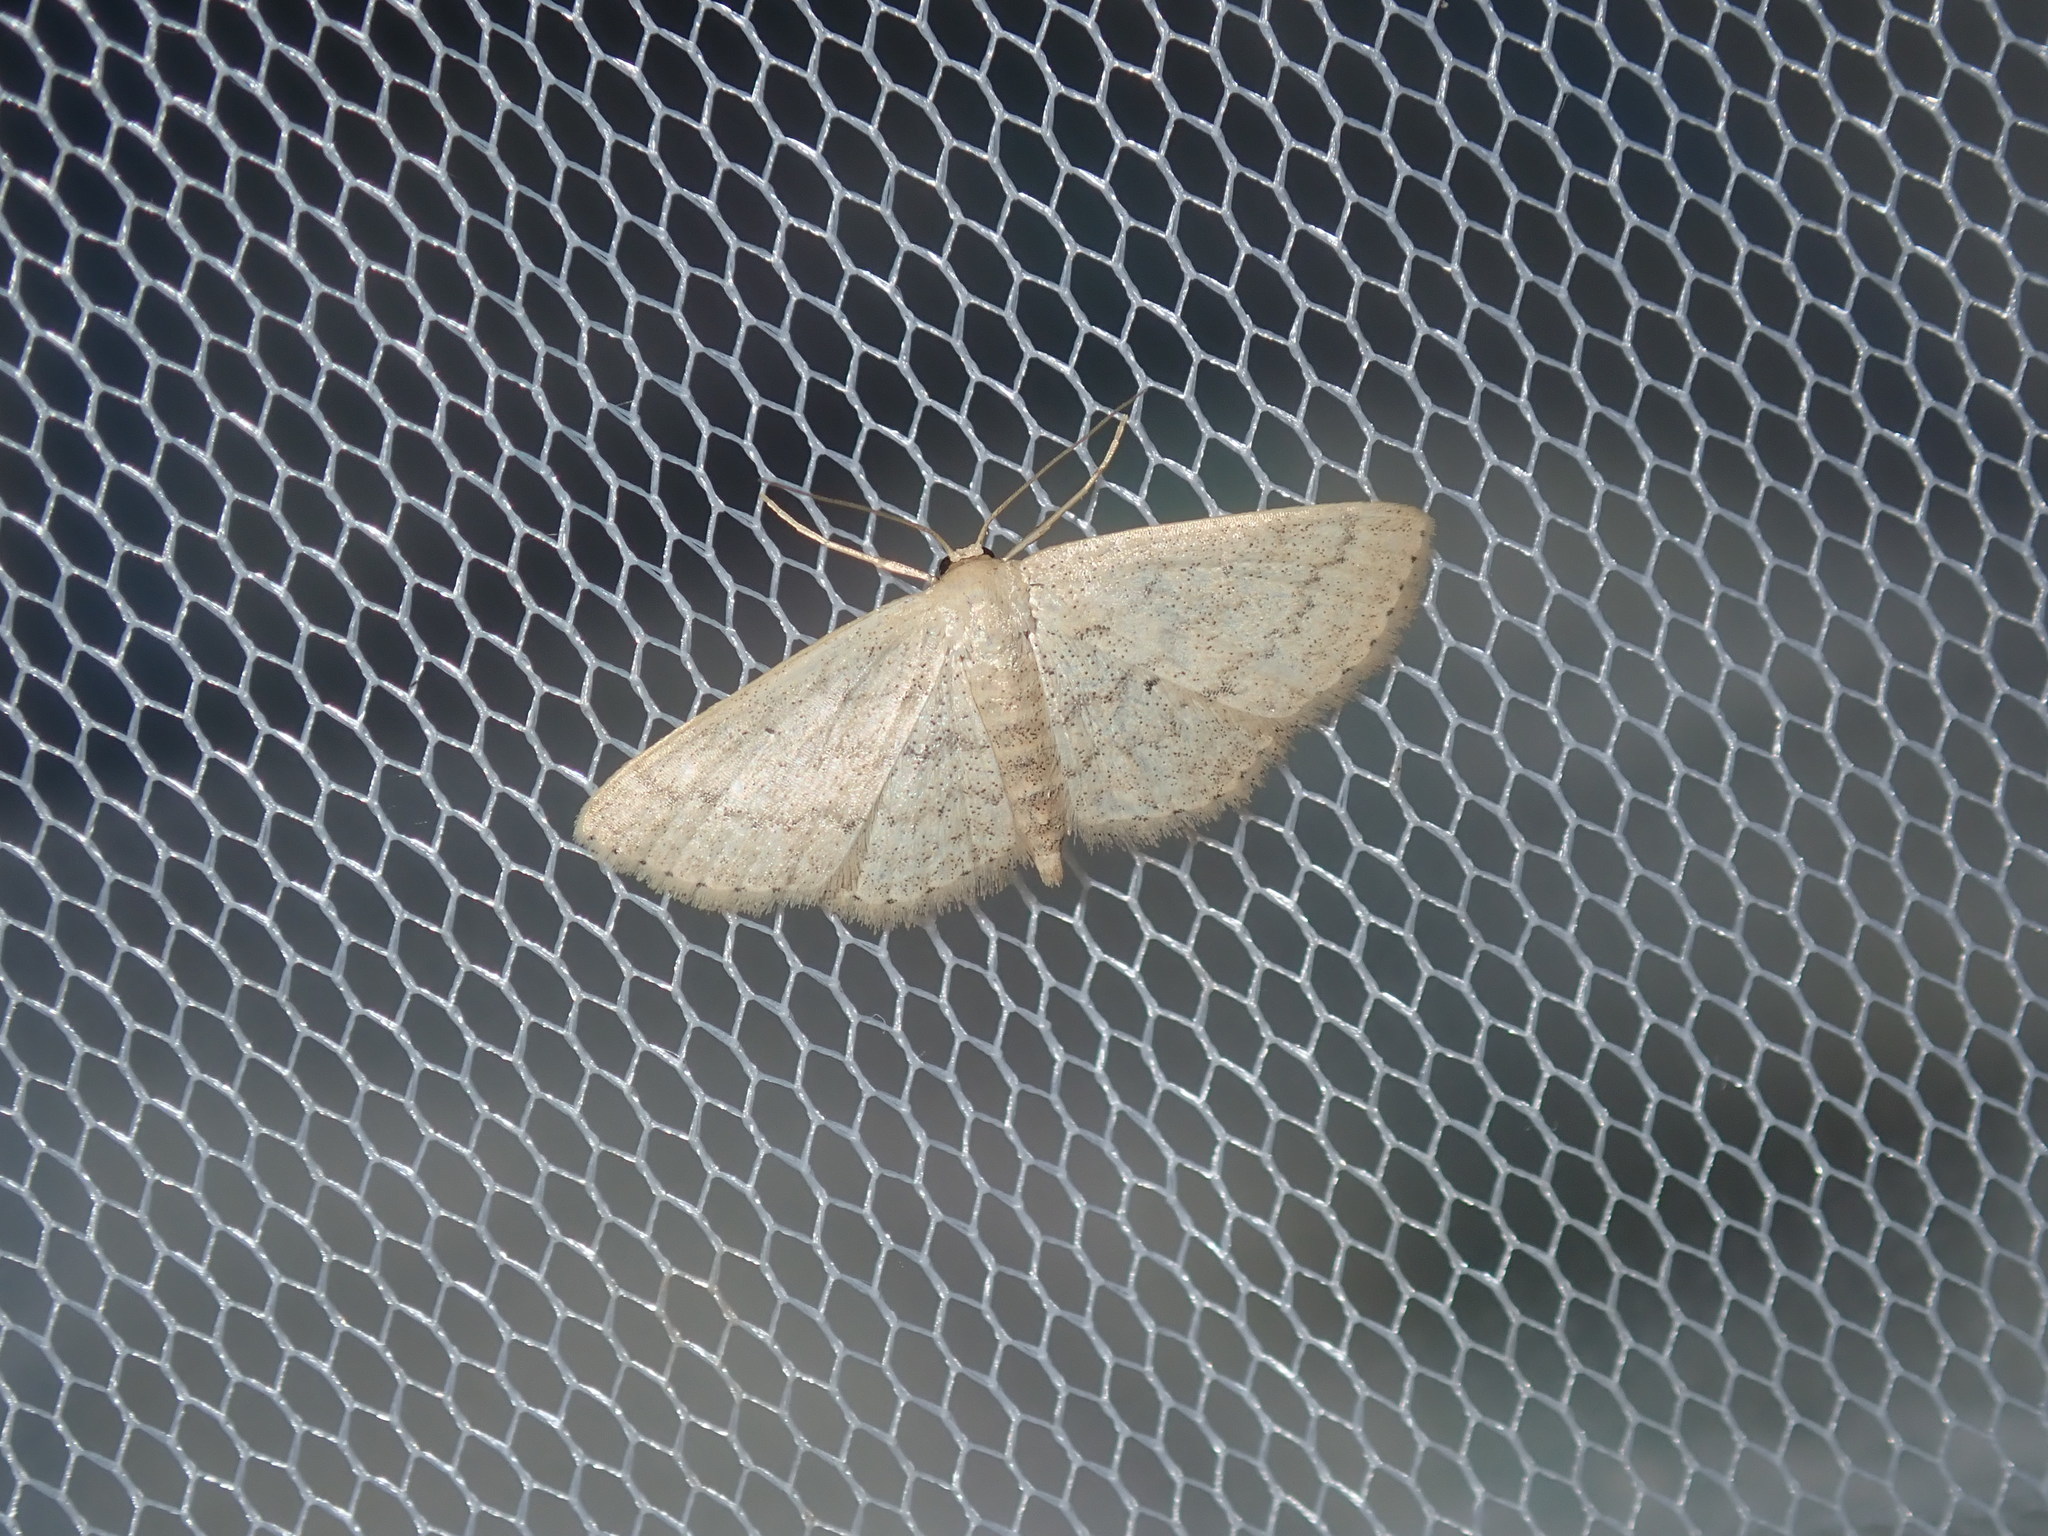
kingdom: Animalia
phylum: Arthropoda
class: Insecta
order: Lepidoptera
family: Geometridae
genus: Scopula
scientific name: Scopula hypochra
